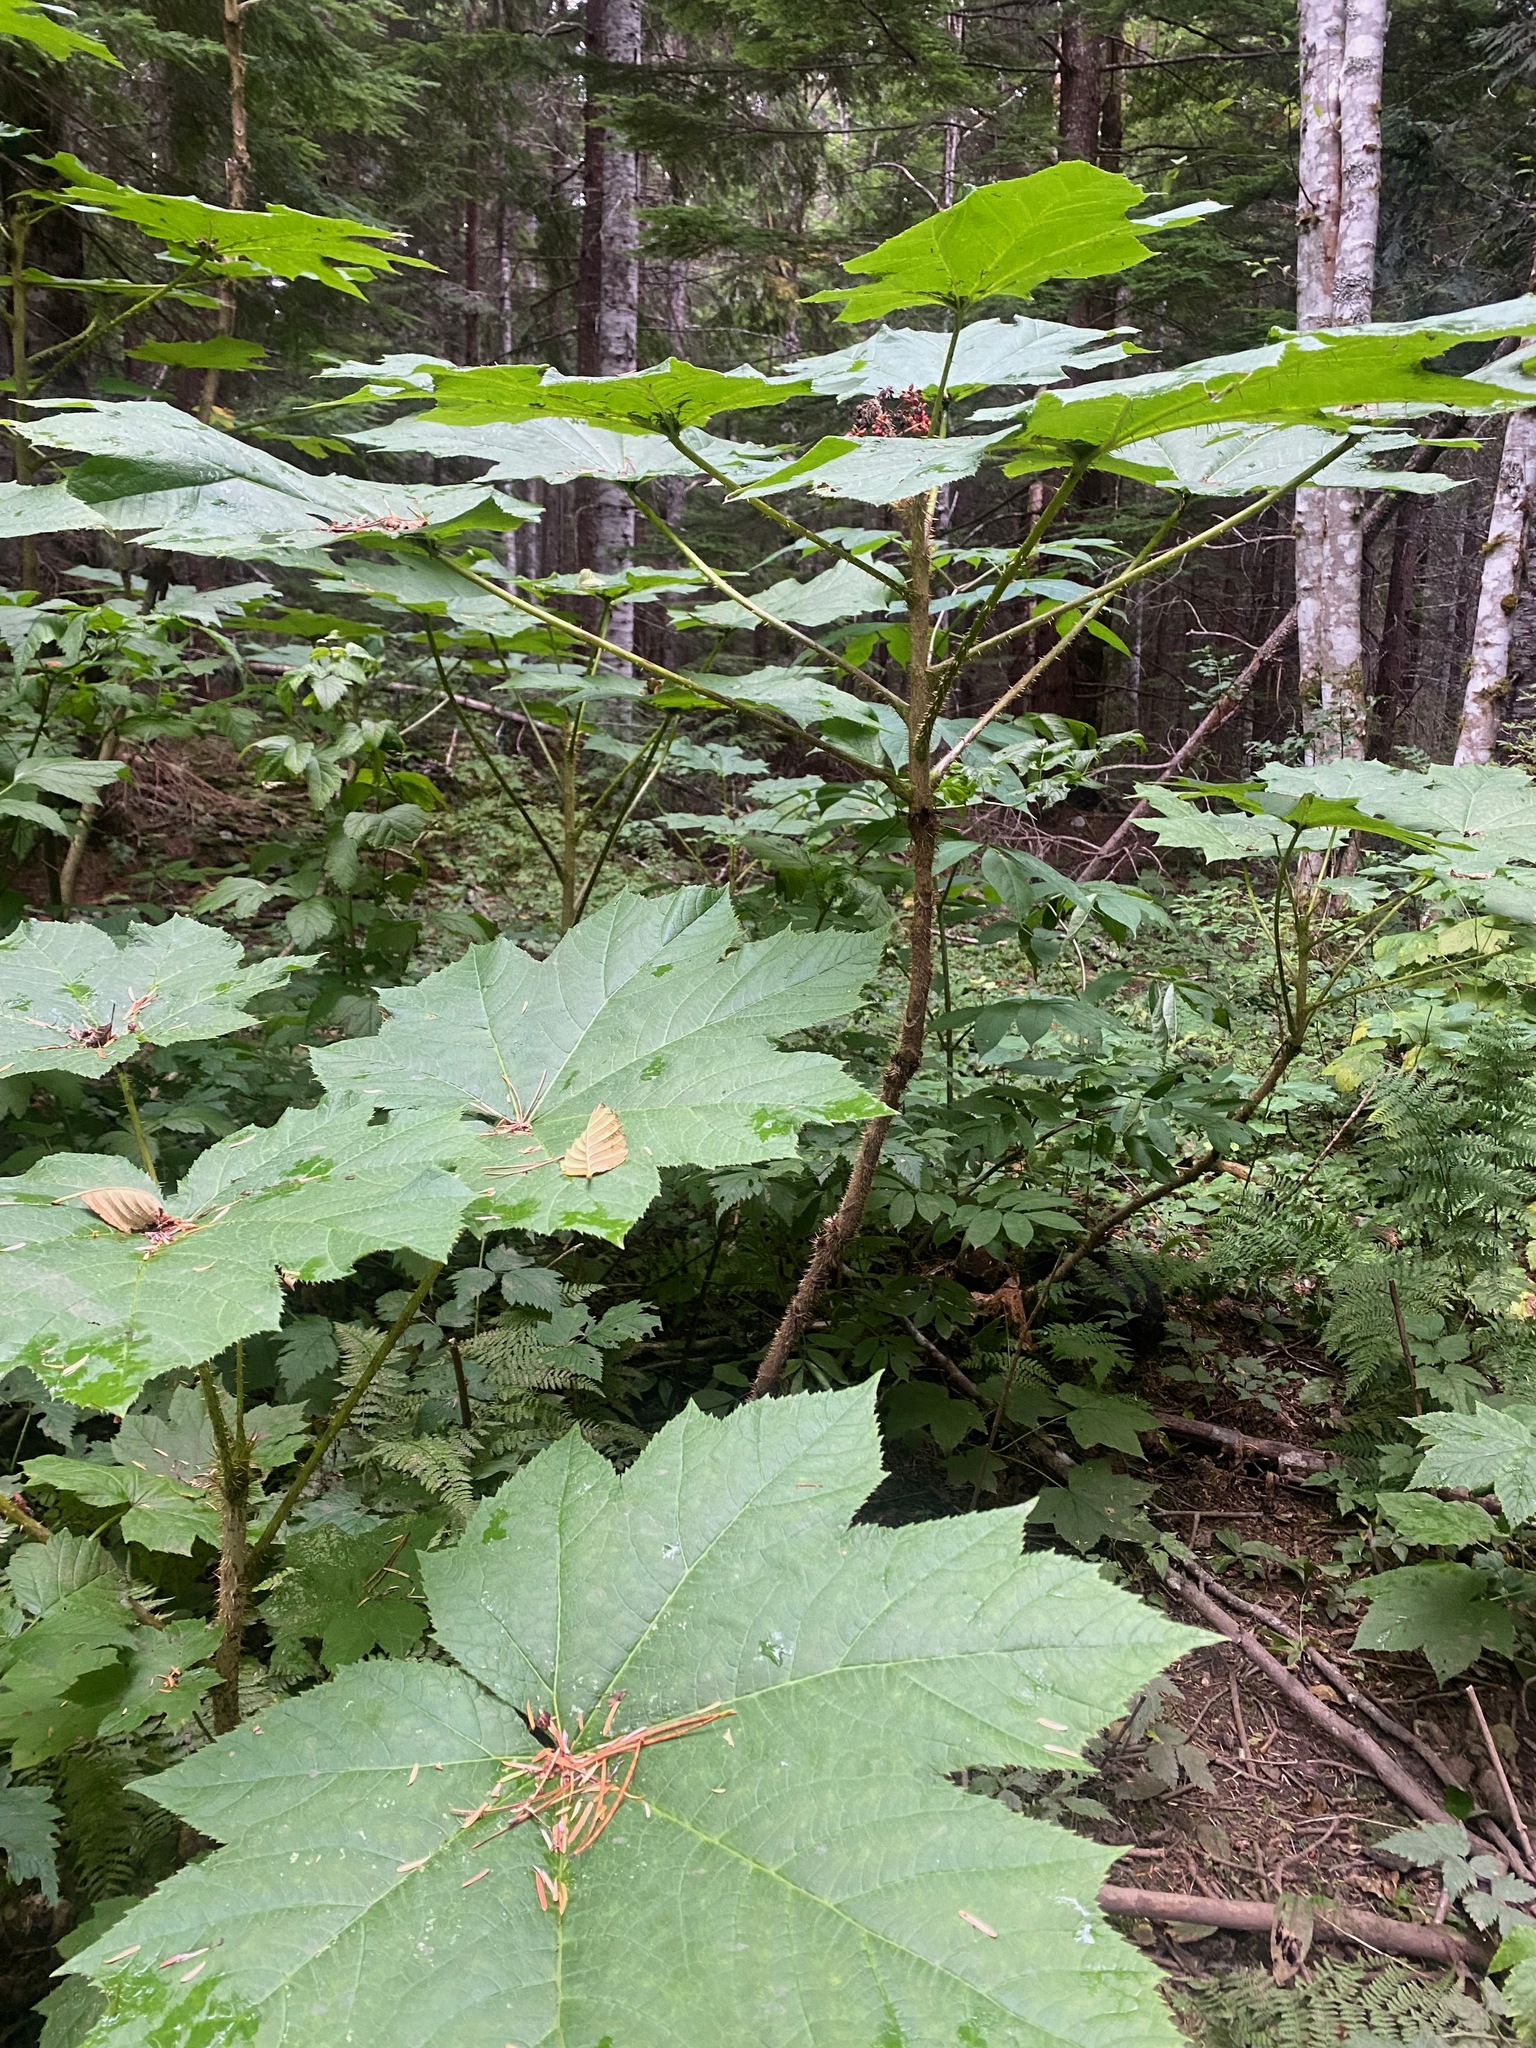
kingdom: Plantae
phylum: Tracheophyta
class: Magnoliopsida
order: Apiales
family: Araliaceae
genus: Oplopanax
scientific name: Oplopanax horridus
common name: Devil's walking-stick
